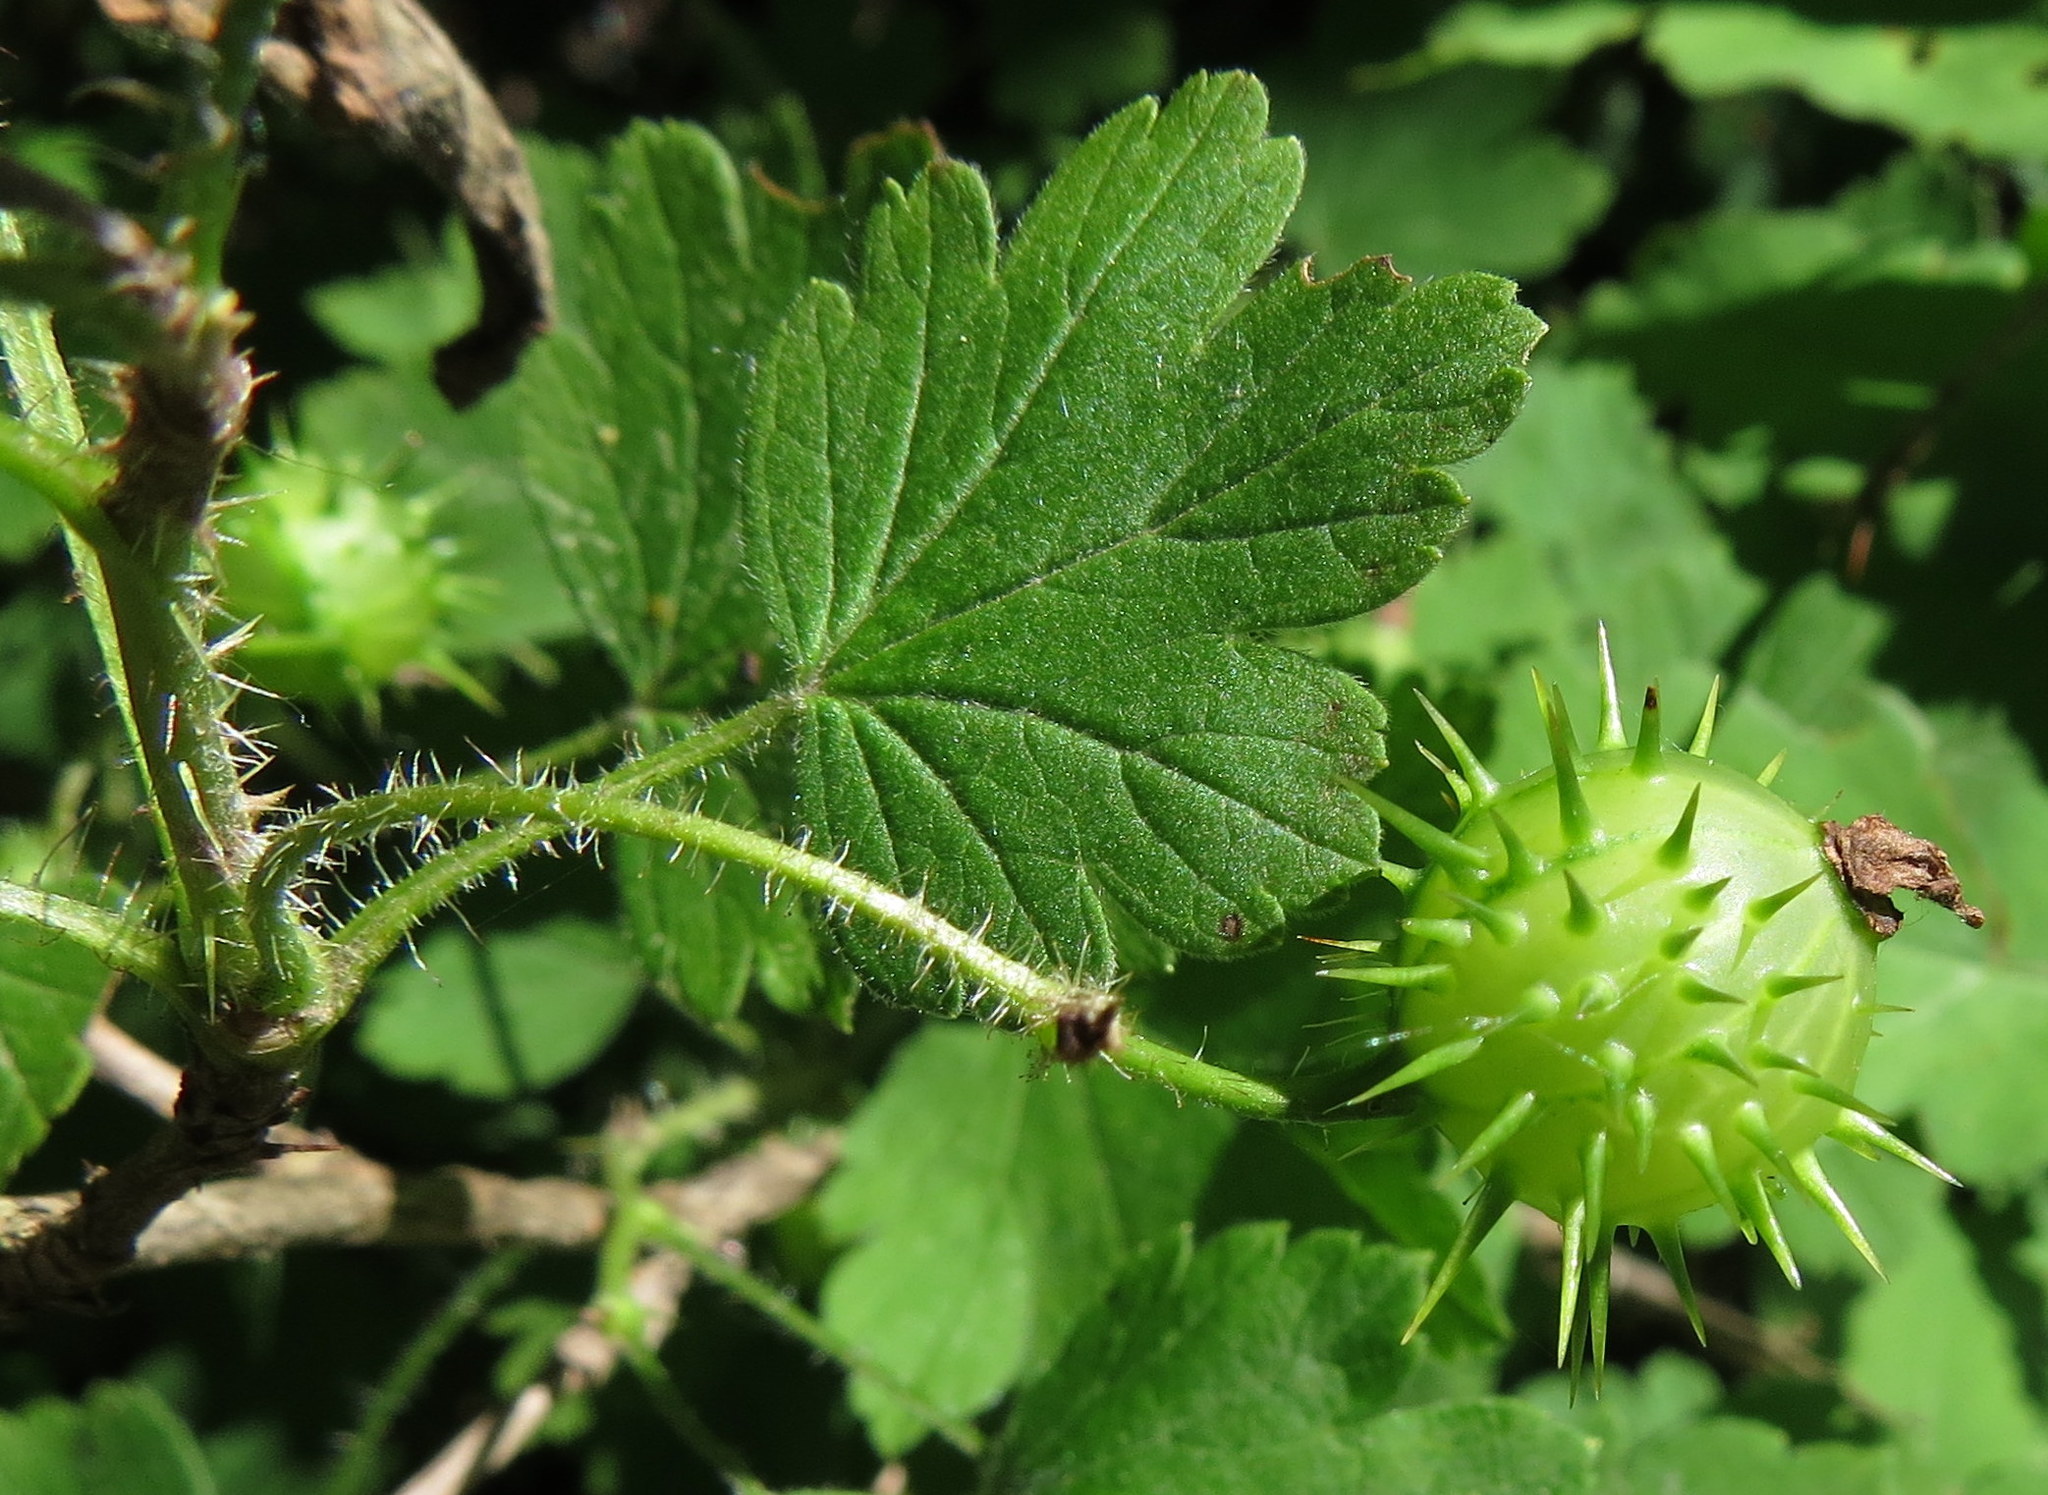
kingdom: Plantae
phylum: Tracheophyta
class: Magnoliopsida
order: Saxifragales
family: Grossulariaceae
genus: Ribes
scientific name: Ribes cynosbati
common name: American gooseberry
